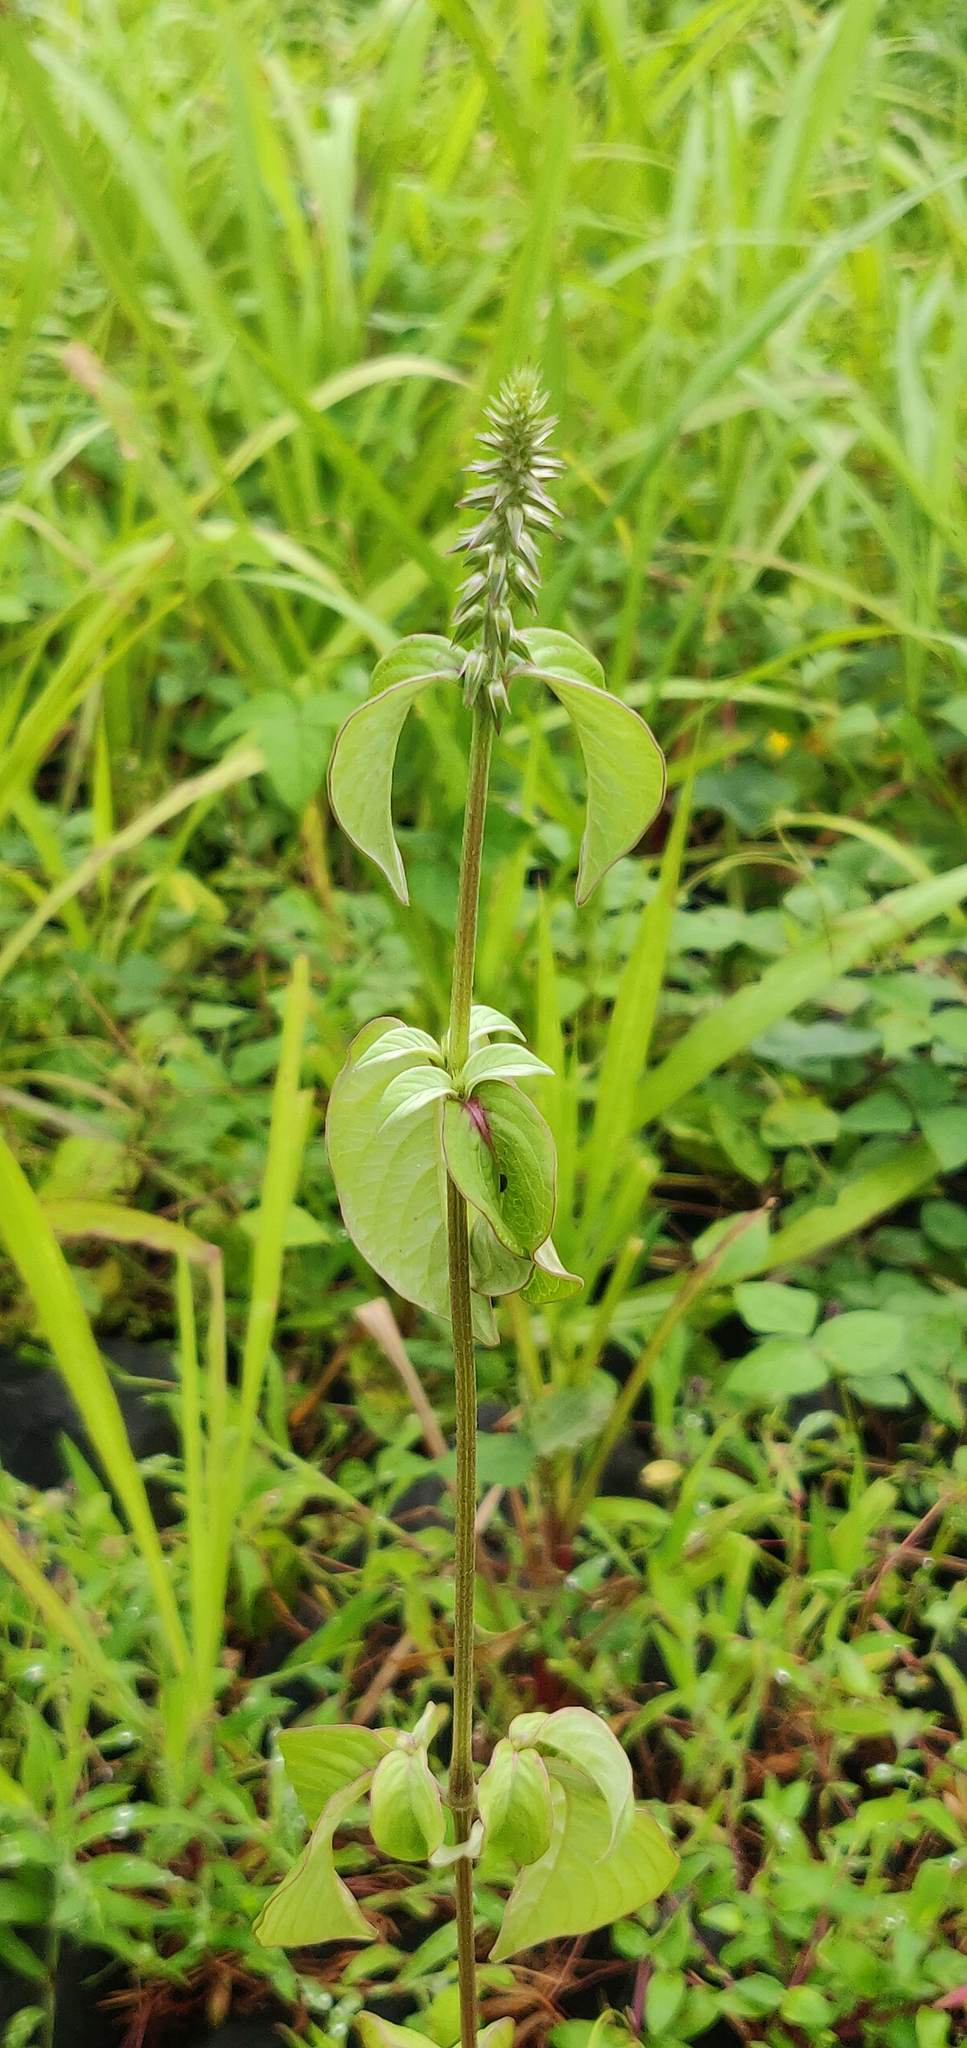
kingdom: Plantae
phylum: Tracheophyta
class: Magnoliopsida
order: Caryophyllales
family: Amaranthaceae
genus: Achyranthes
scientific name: Achyranthes aspera
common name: Devil's horsewhip
